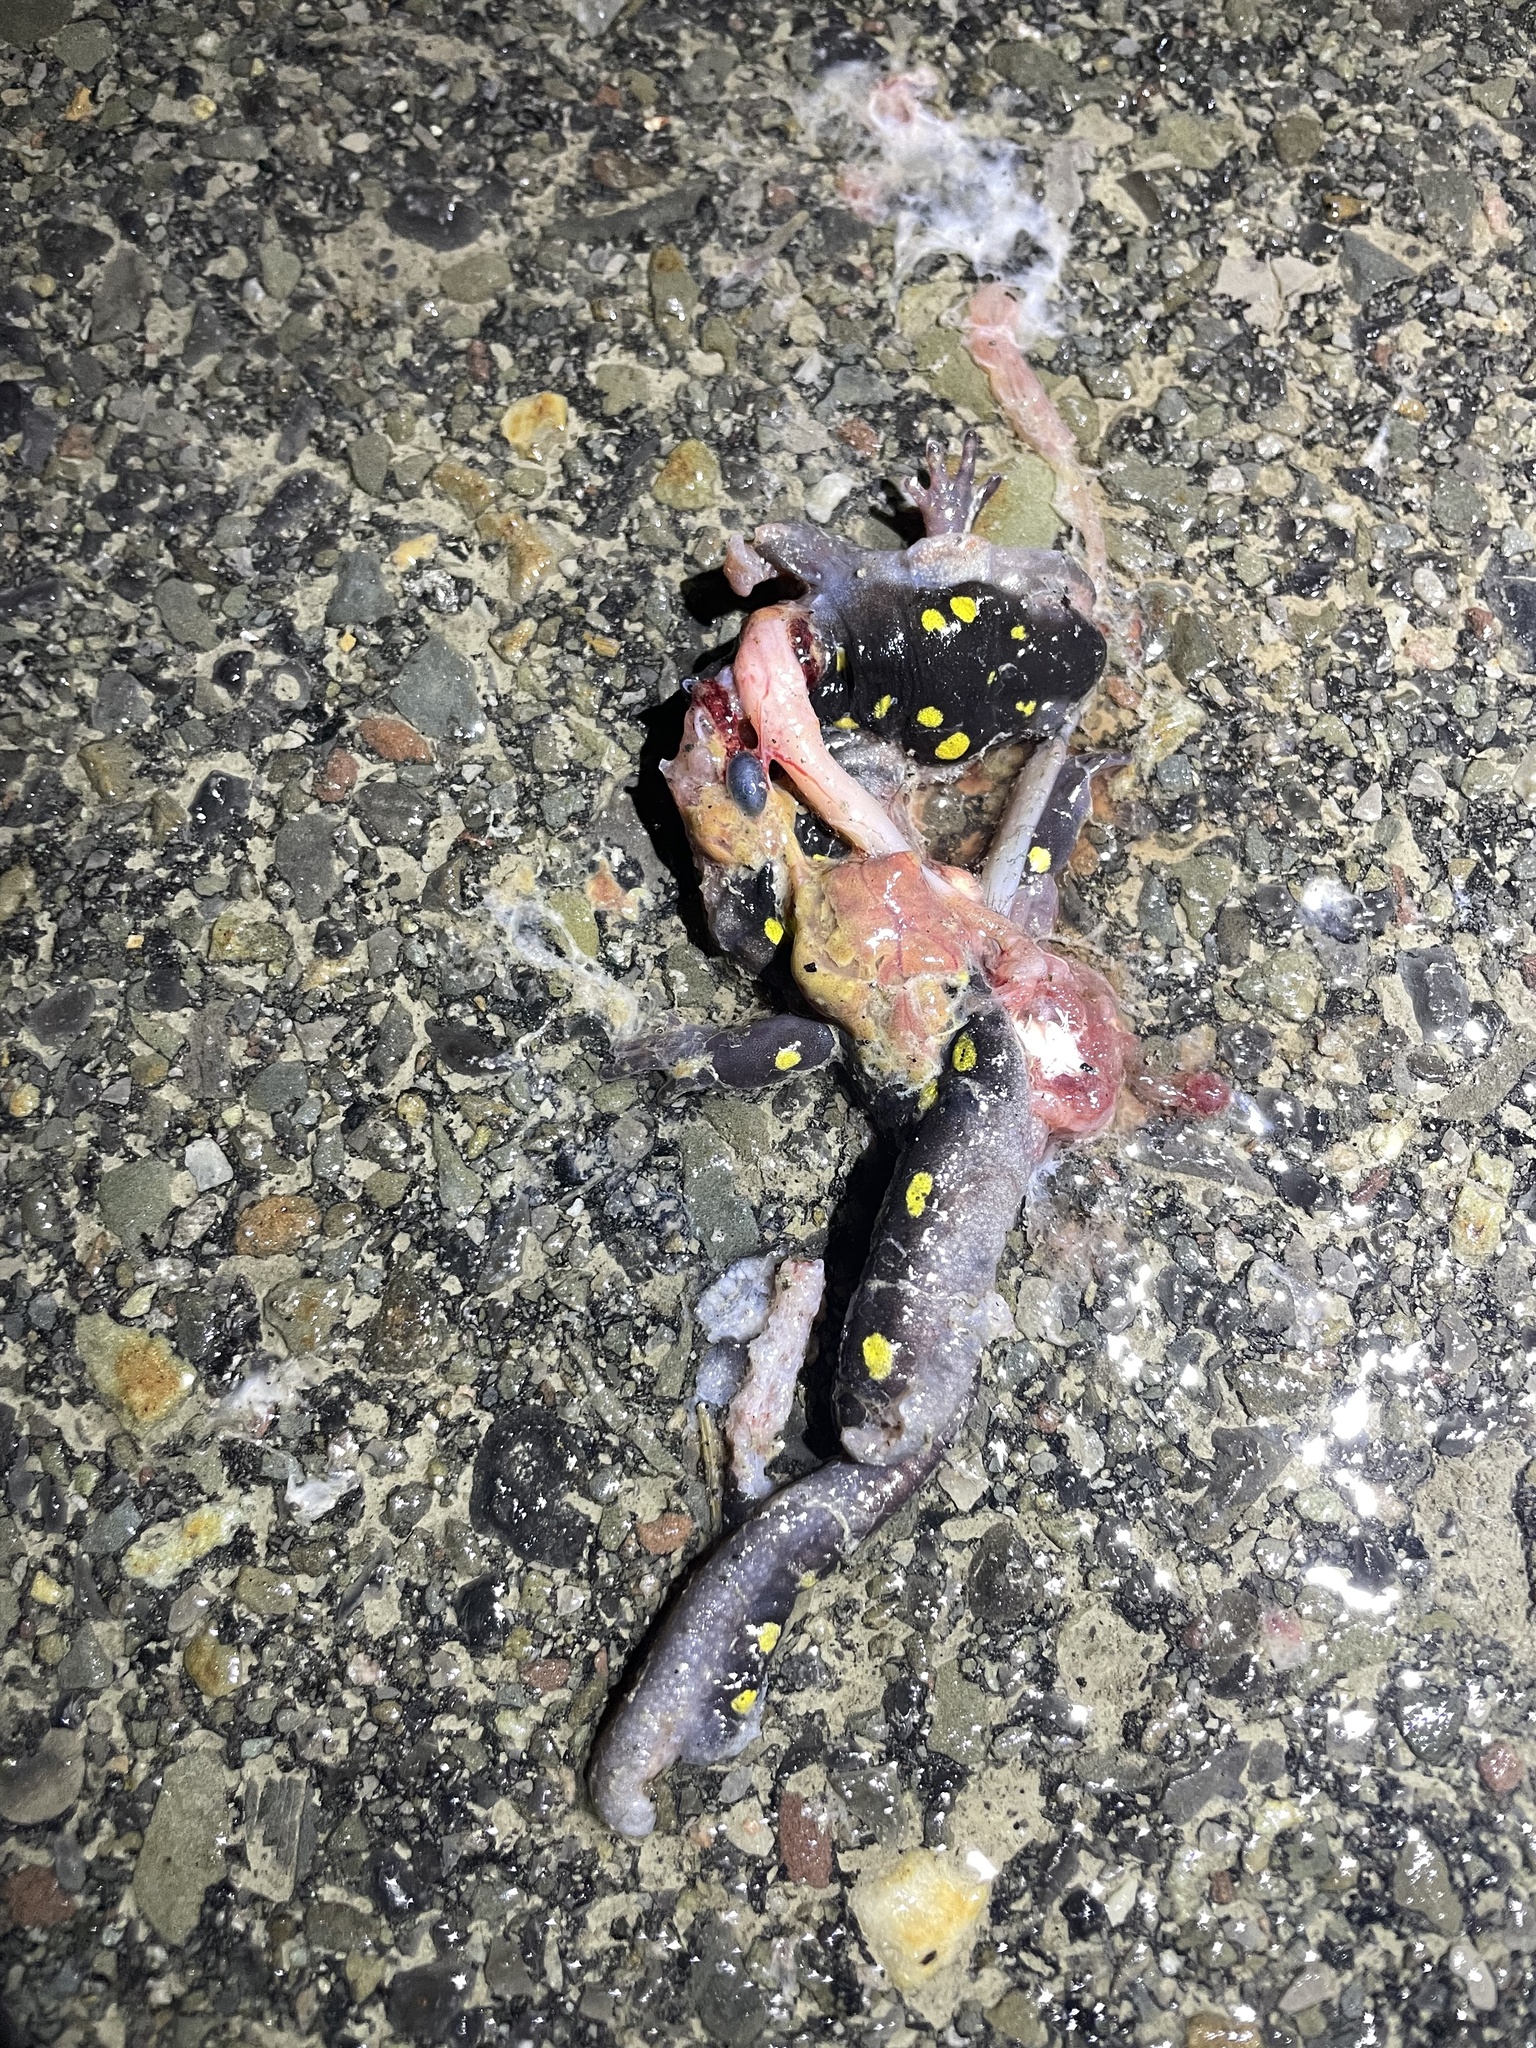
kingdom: Animalia
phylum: Chordata
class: Amphibia
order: Caudata
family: Ambystomatidae
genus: Ambystoma
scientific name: Ambystoma maculatum
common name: Spotted salamander
